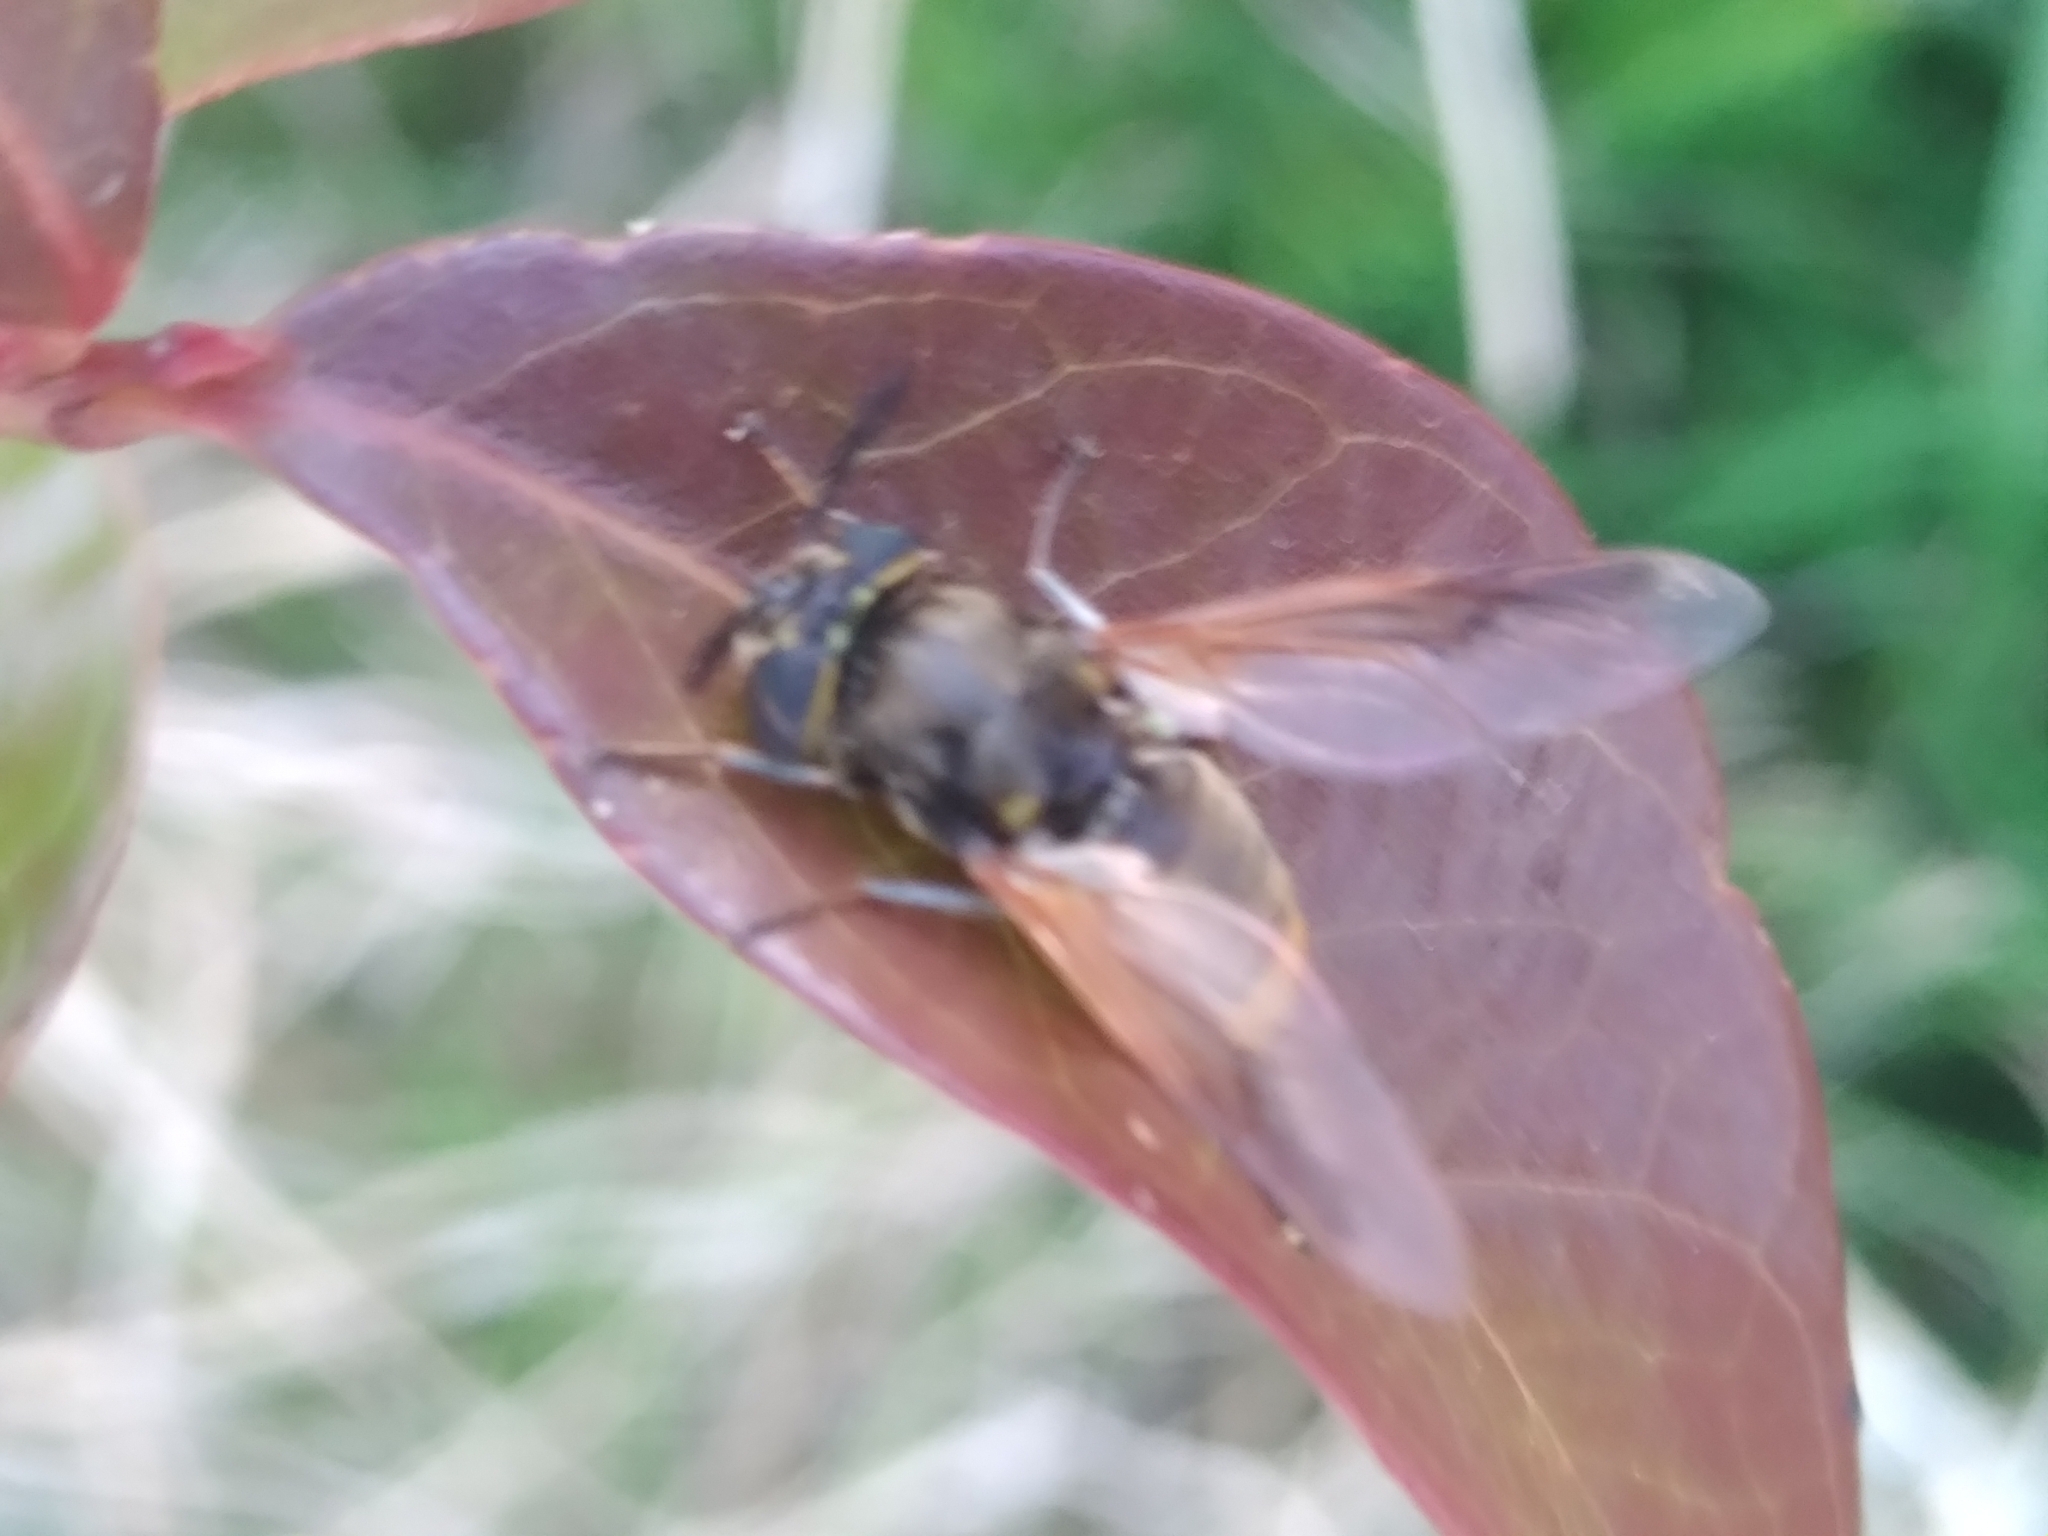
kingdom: Animalia
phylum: Arthropoda
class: Insecta
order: Diptera
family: Stratiomyidae
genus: Hoplitimyia
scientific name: Hoplitimyia mutabilis
